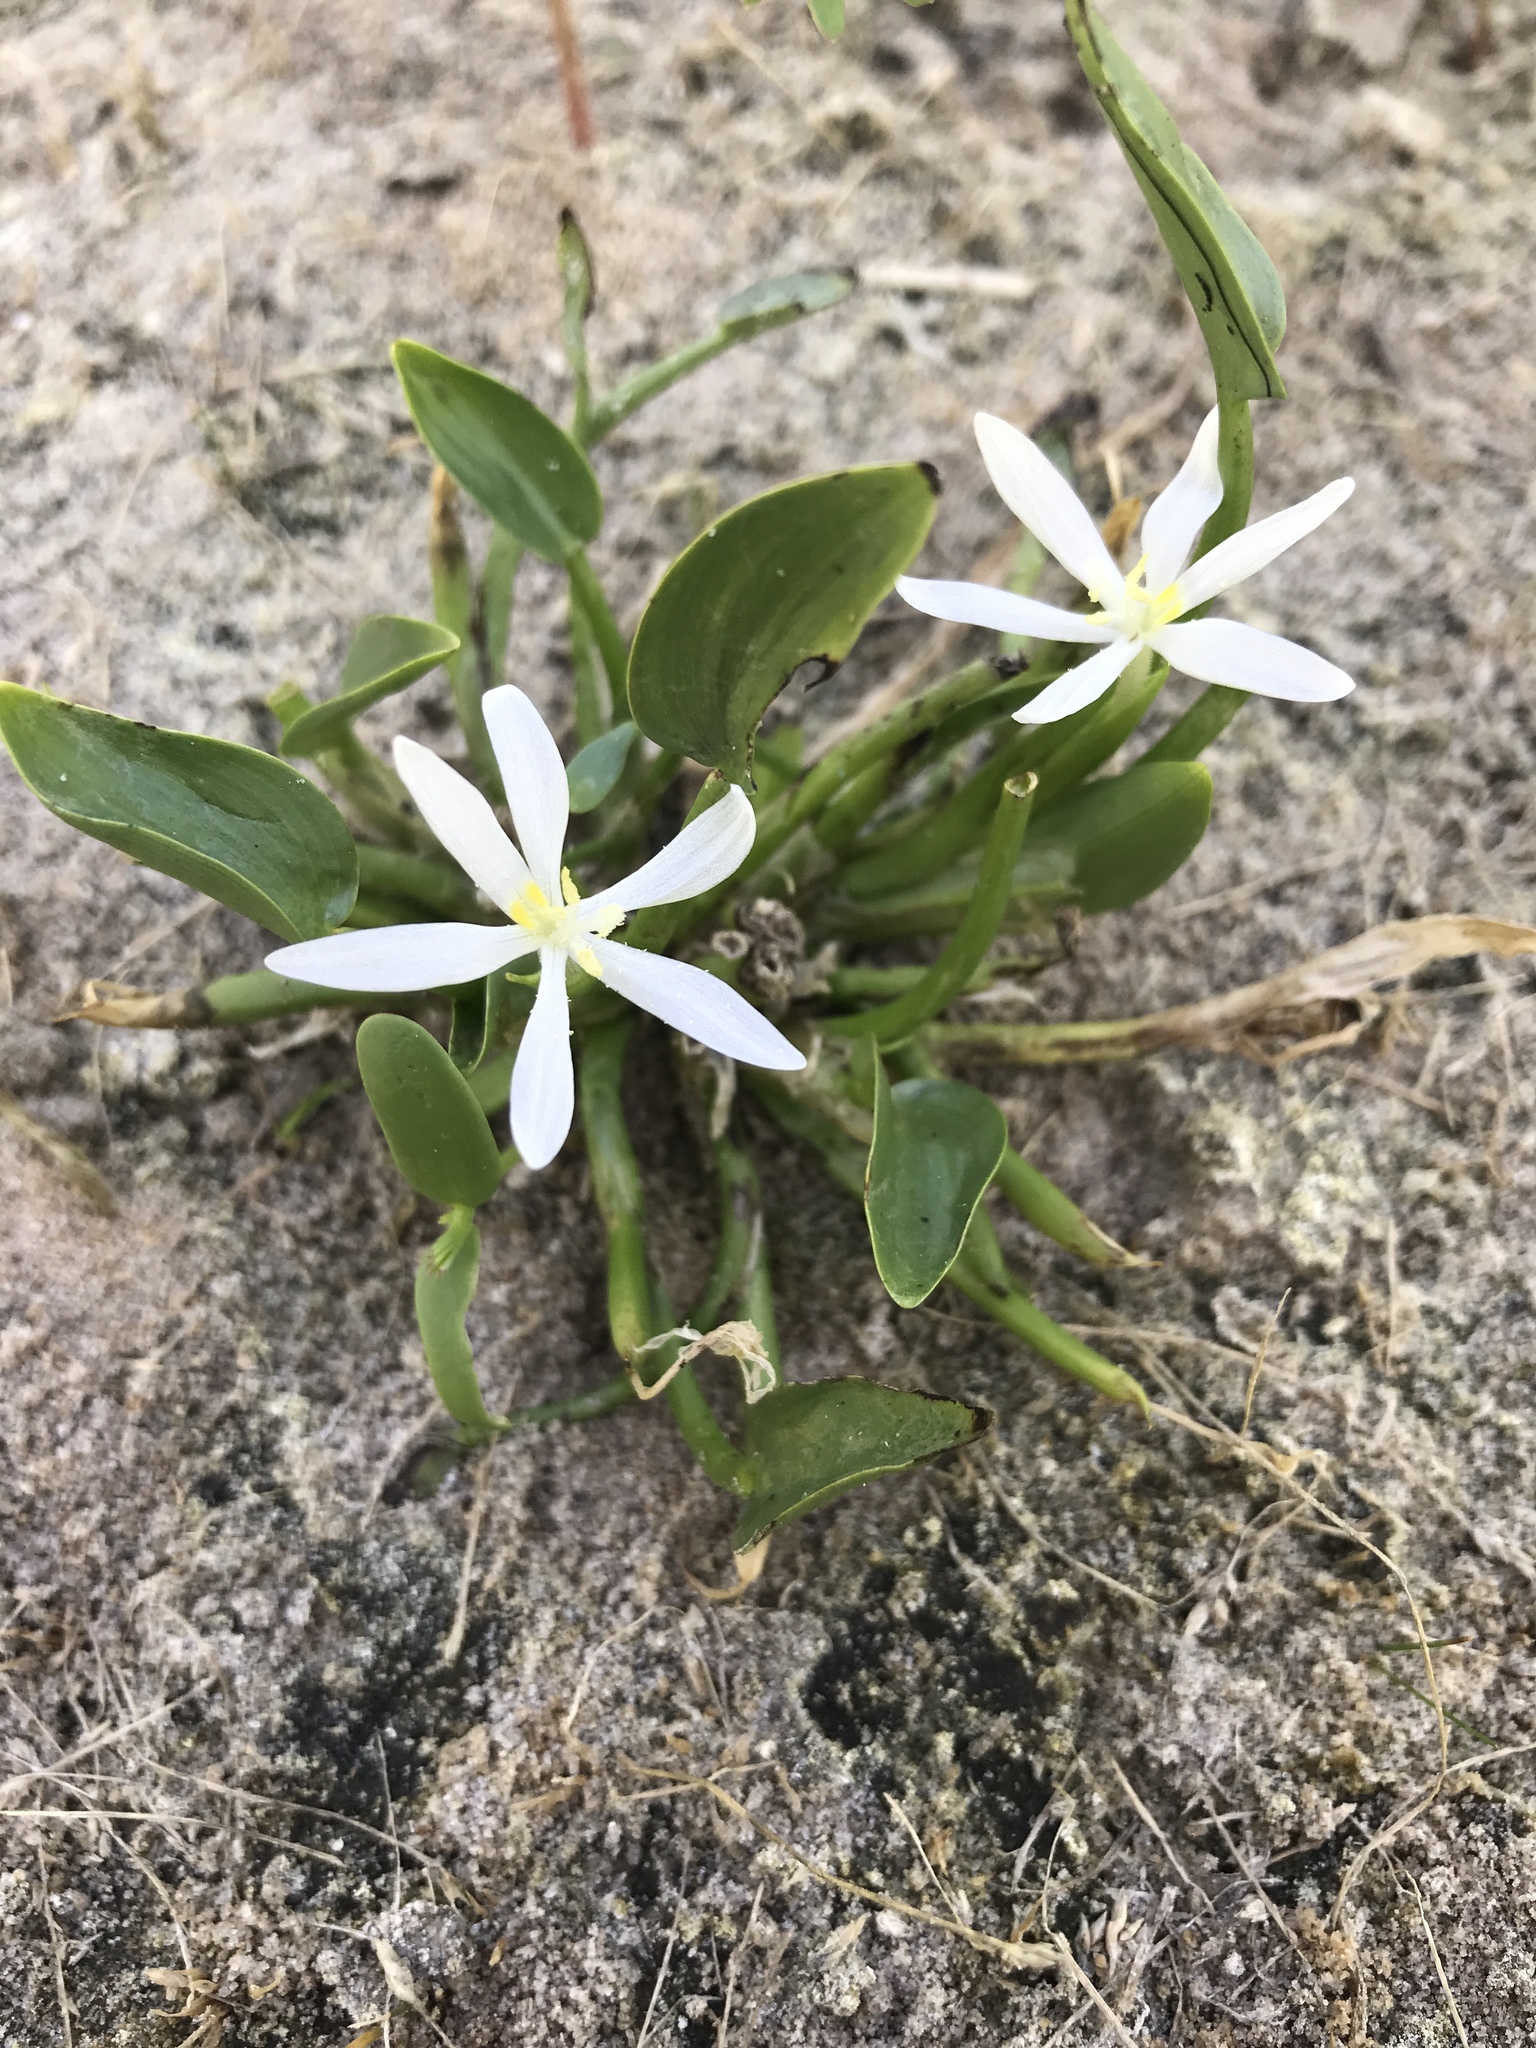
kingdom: Plantae
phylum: Tracheophyta
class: Liliopsida
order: Commelinales
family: Pontederiaceae
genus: Heteranthera
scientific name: Heteranthera limosa
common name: Blue mud-plantain
